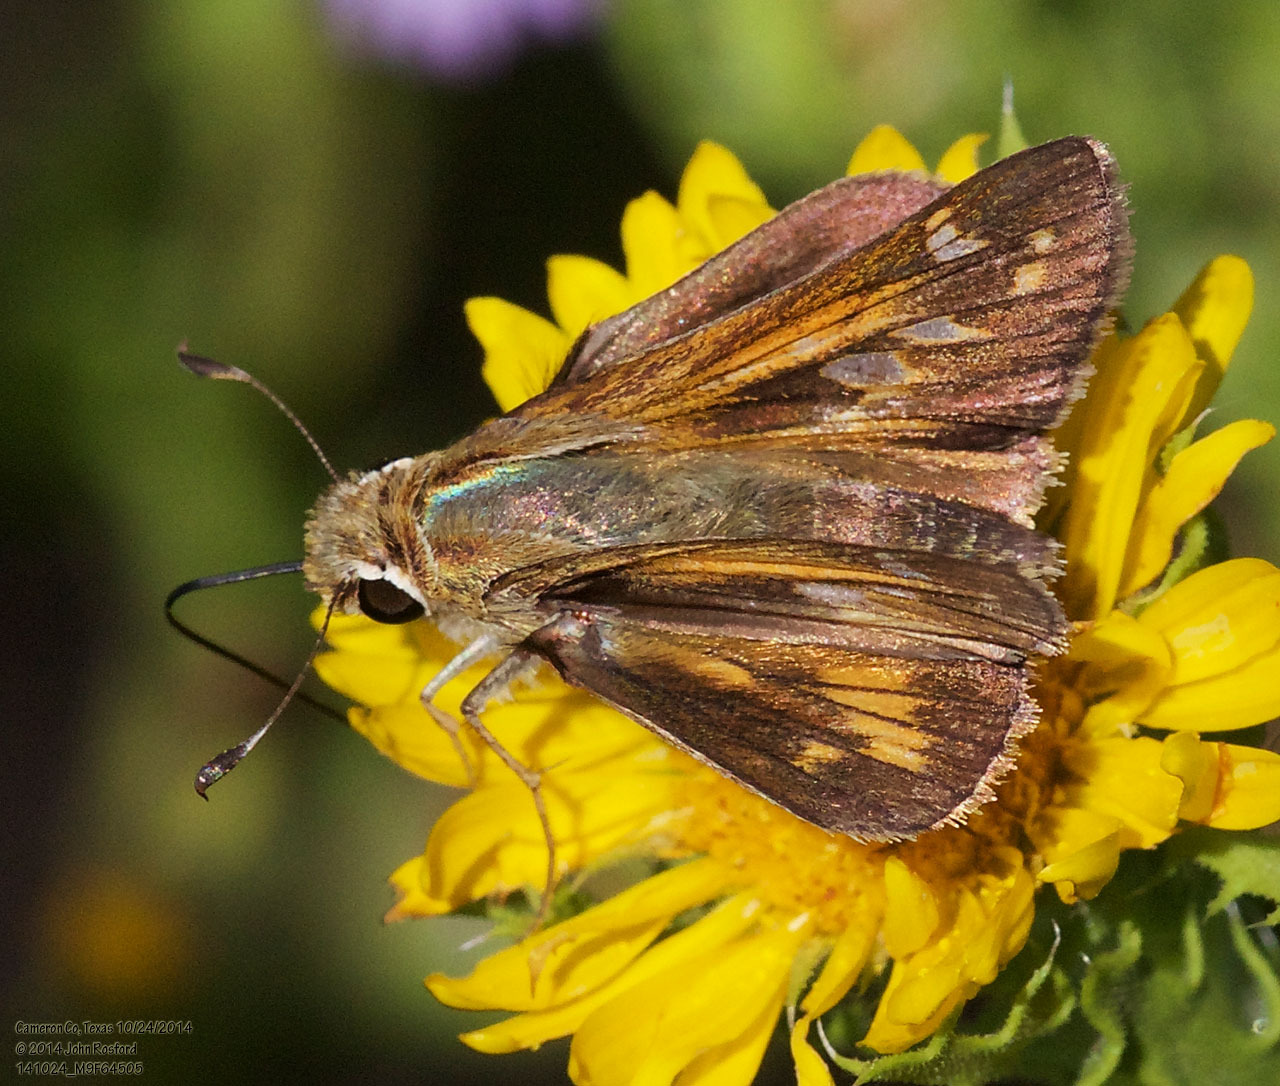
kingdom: Animalia
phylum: Arthropoda
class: Insecta
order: Lepidoptera
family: Hesperiidae
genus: Atalopedes
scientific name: Atalopedes
